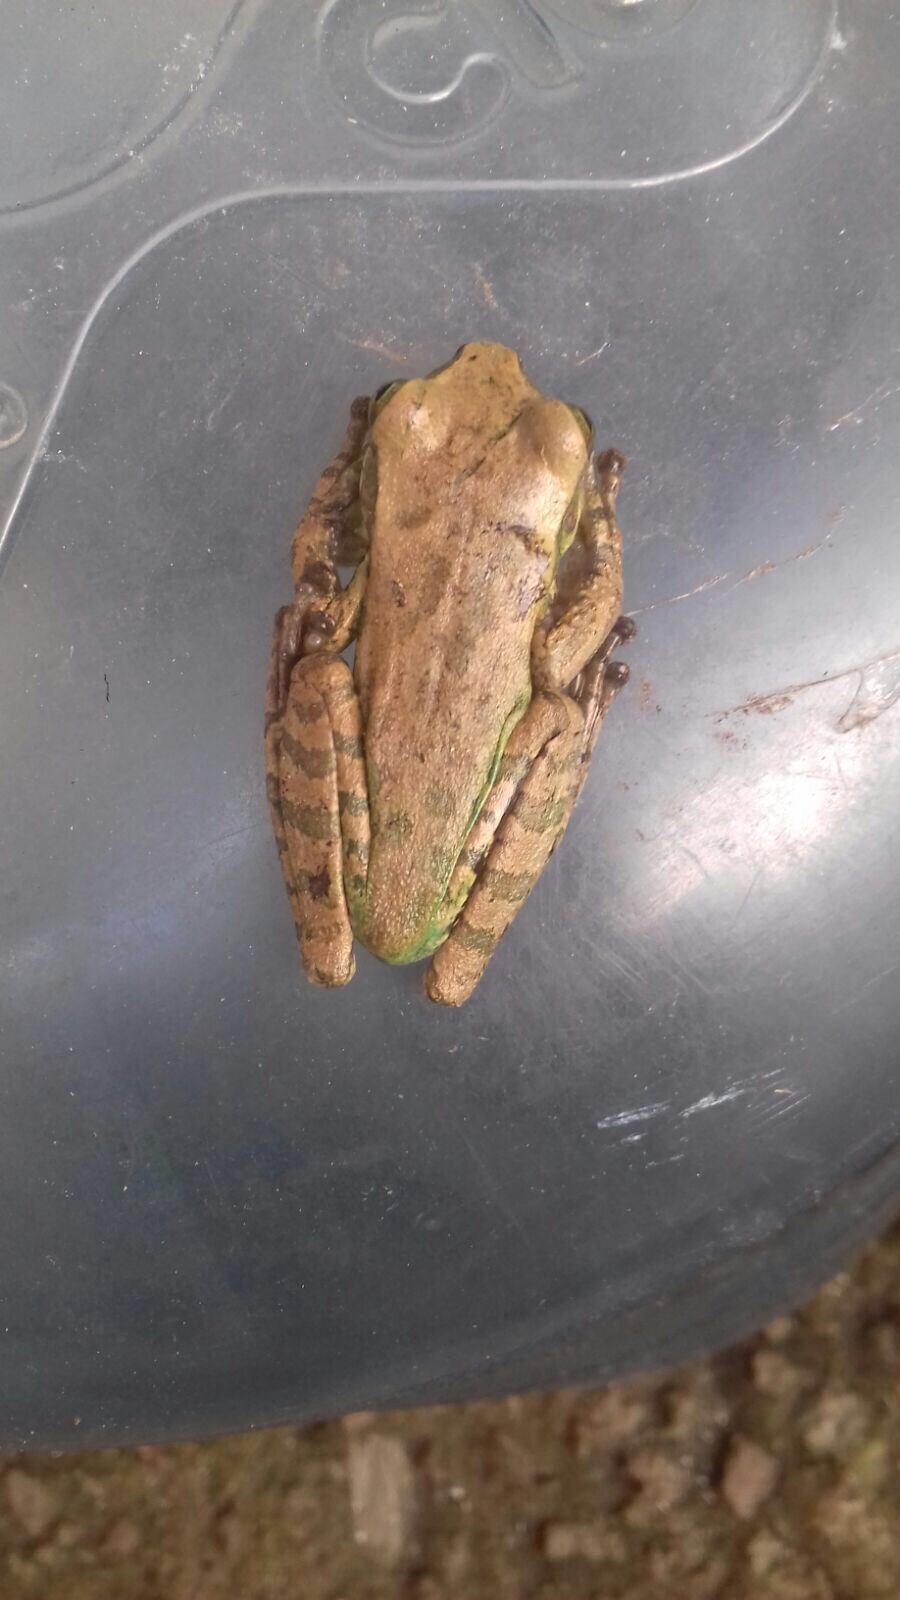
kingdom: Animalia
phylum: Chordata
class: Amphibia
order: Anura
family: Hylidae
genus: Smilisca
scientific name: Smilisca baudinii
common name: Mexican smilisca
